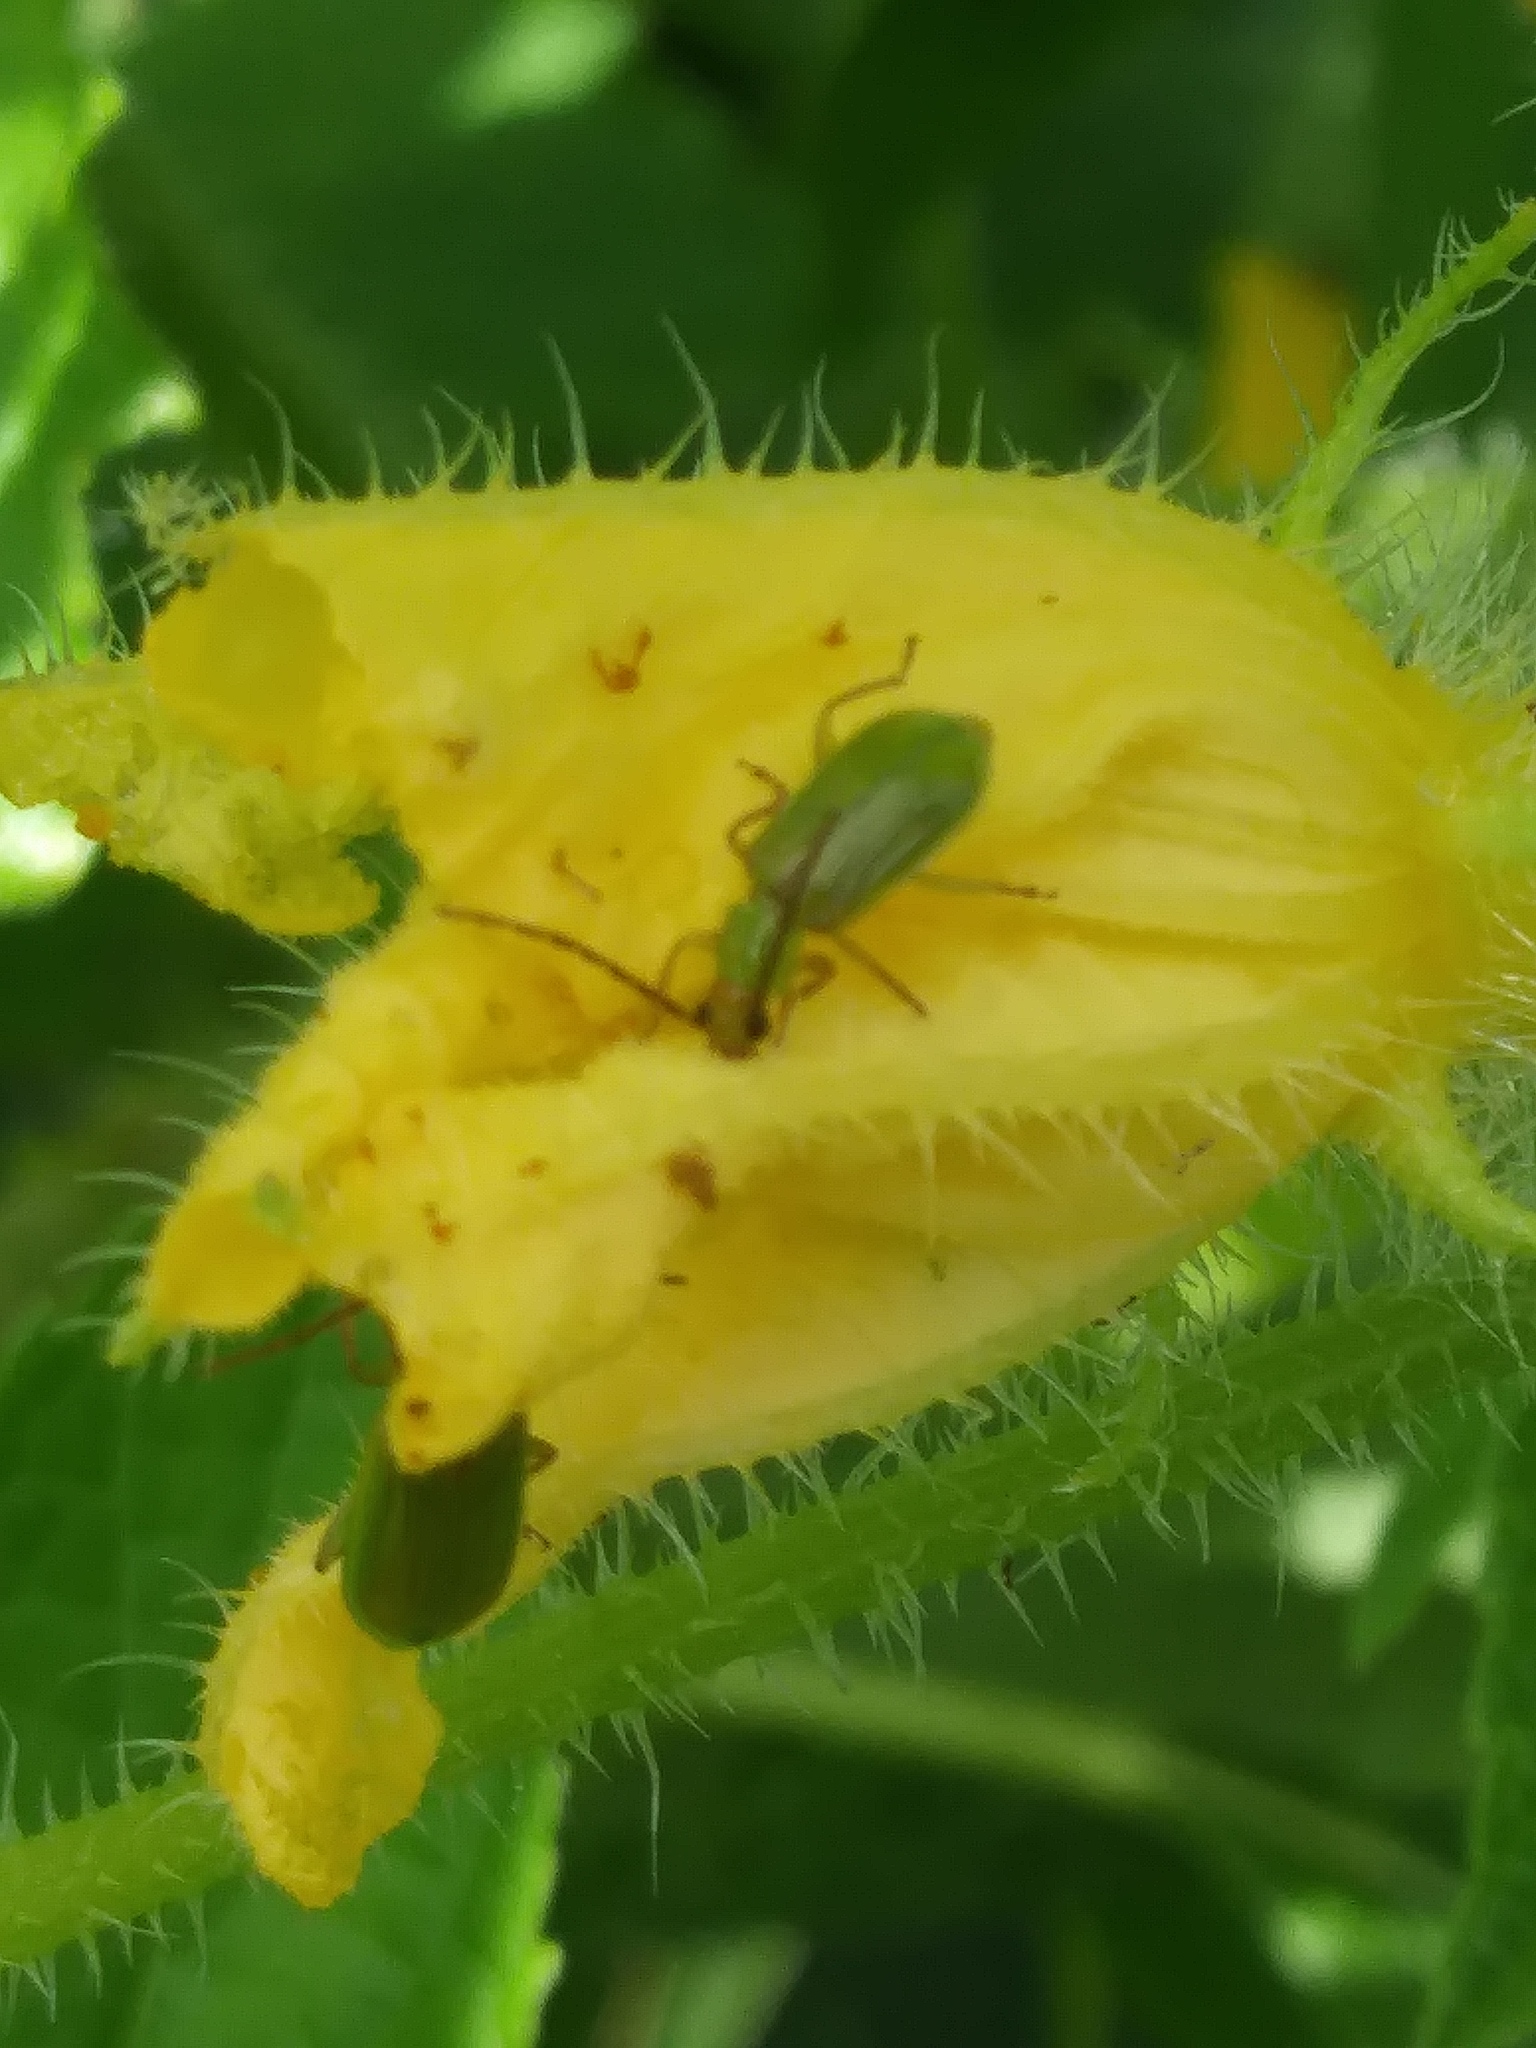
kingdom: Animalia
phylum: Arthropoda
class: Insecta
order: Coleoptera
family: Chrysomelidae
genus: Diabrotica
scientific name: Diabrotica barberi
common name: Northern corn rootworm
